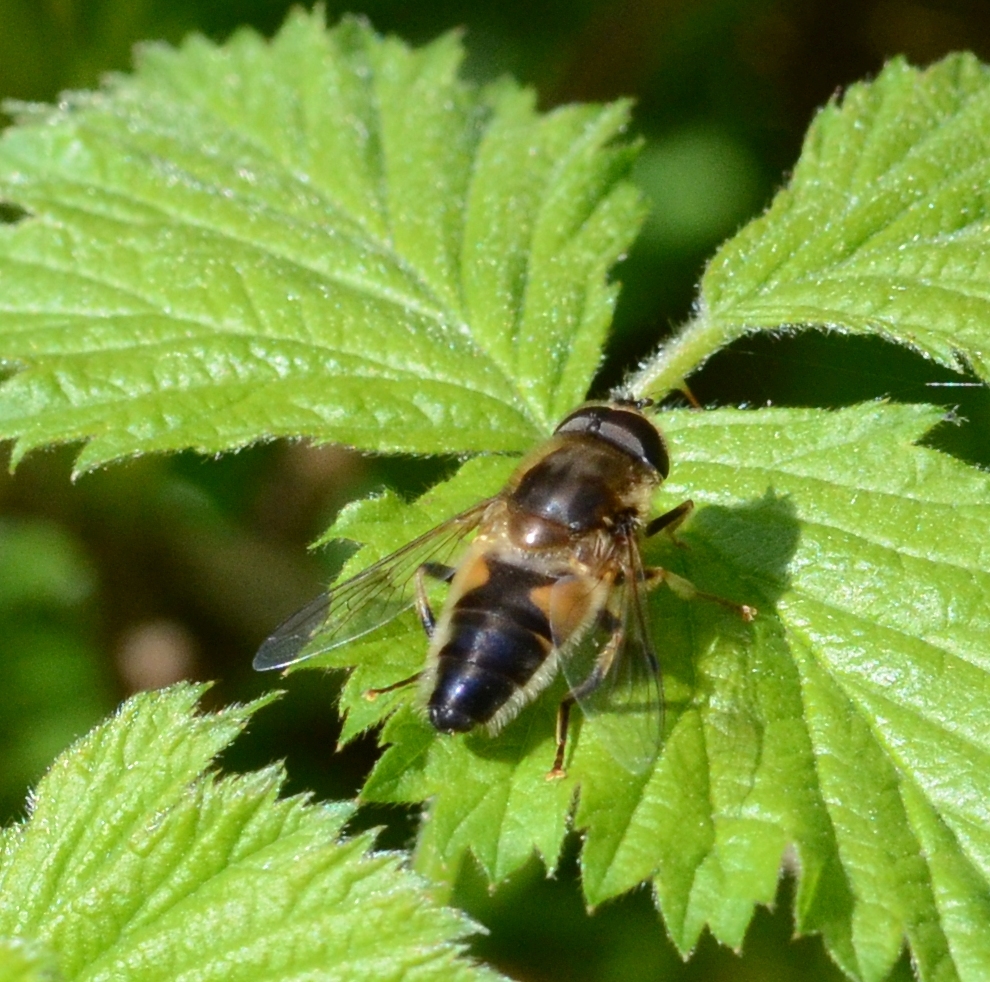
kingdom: Animalia
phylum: Arthropoda
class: Insecta
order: Diptera
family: Syrphidae
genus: Eristalis
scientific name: Eristalis pertinax
